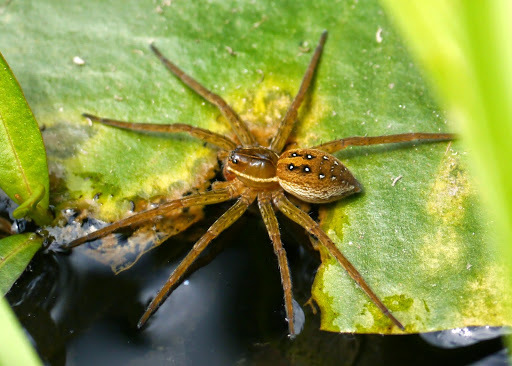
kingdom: Animalia
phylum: Arthropoda
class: Arachnida
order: Araneae
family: Pisauridae
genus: Dolomedes
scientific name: Dolomedes triton
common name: Six-spotted fishing spider
